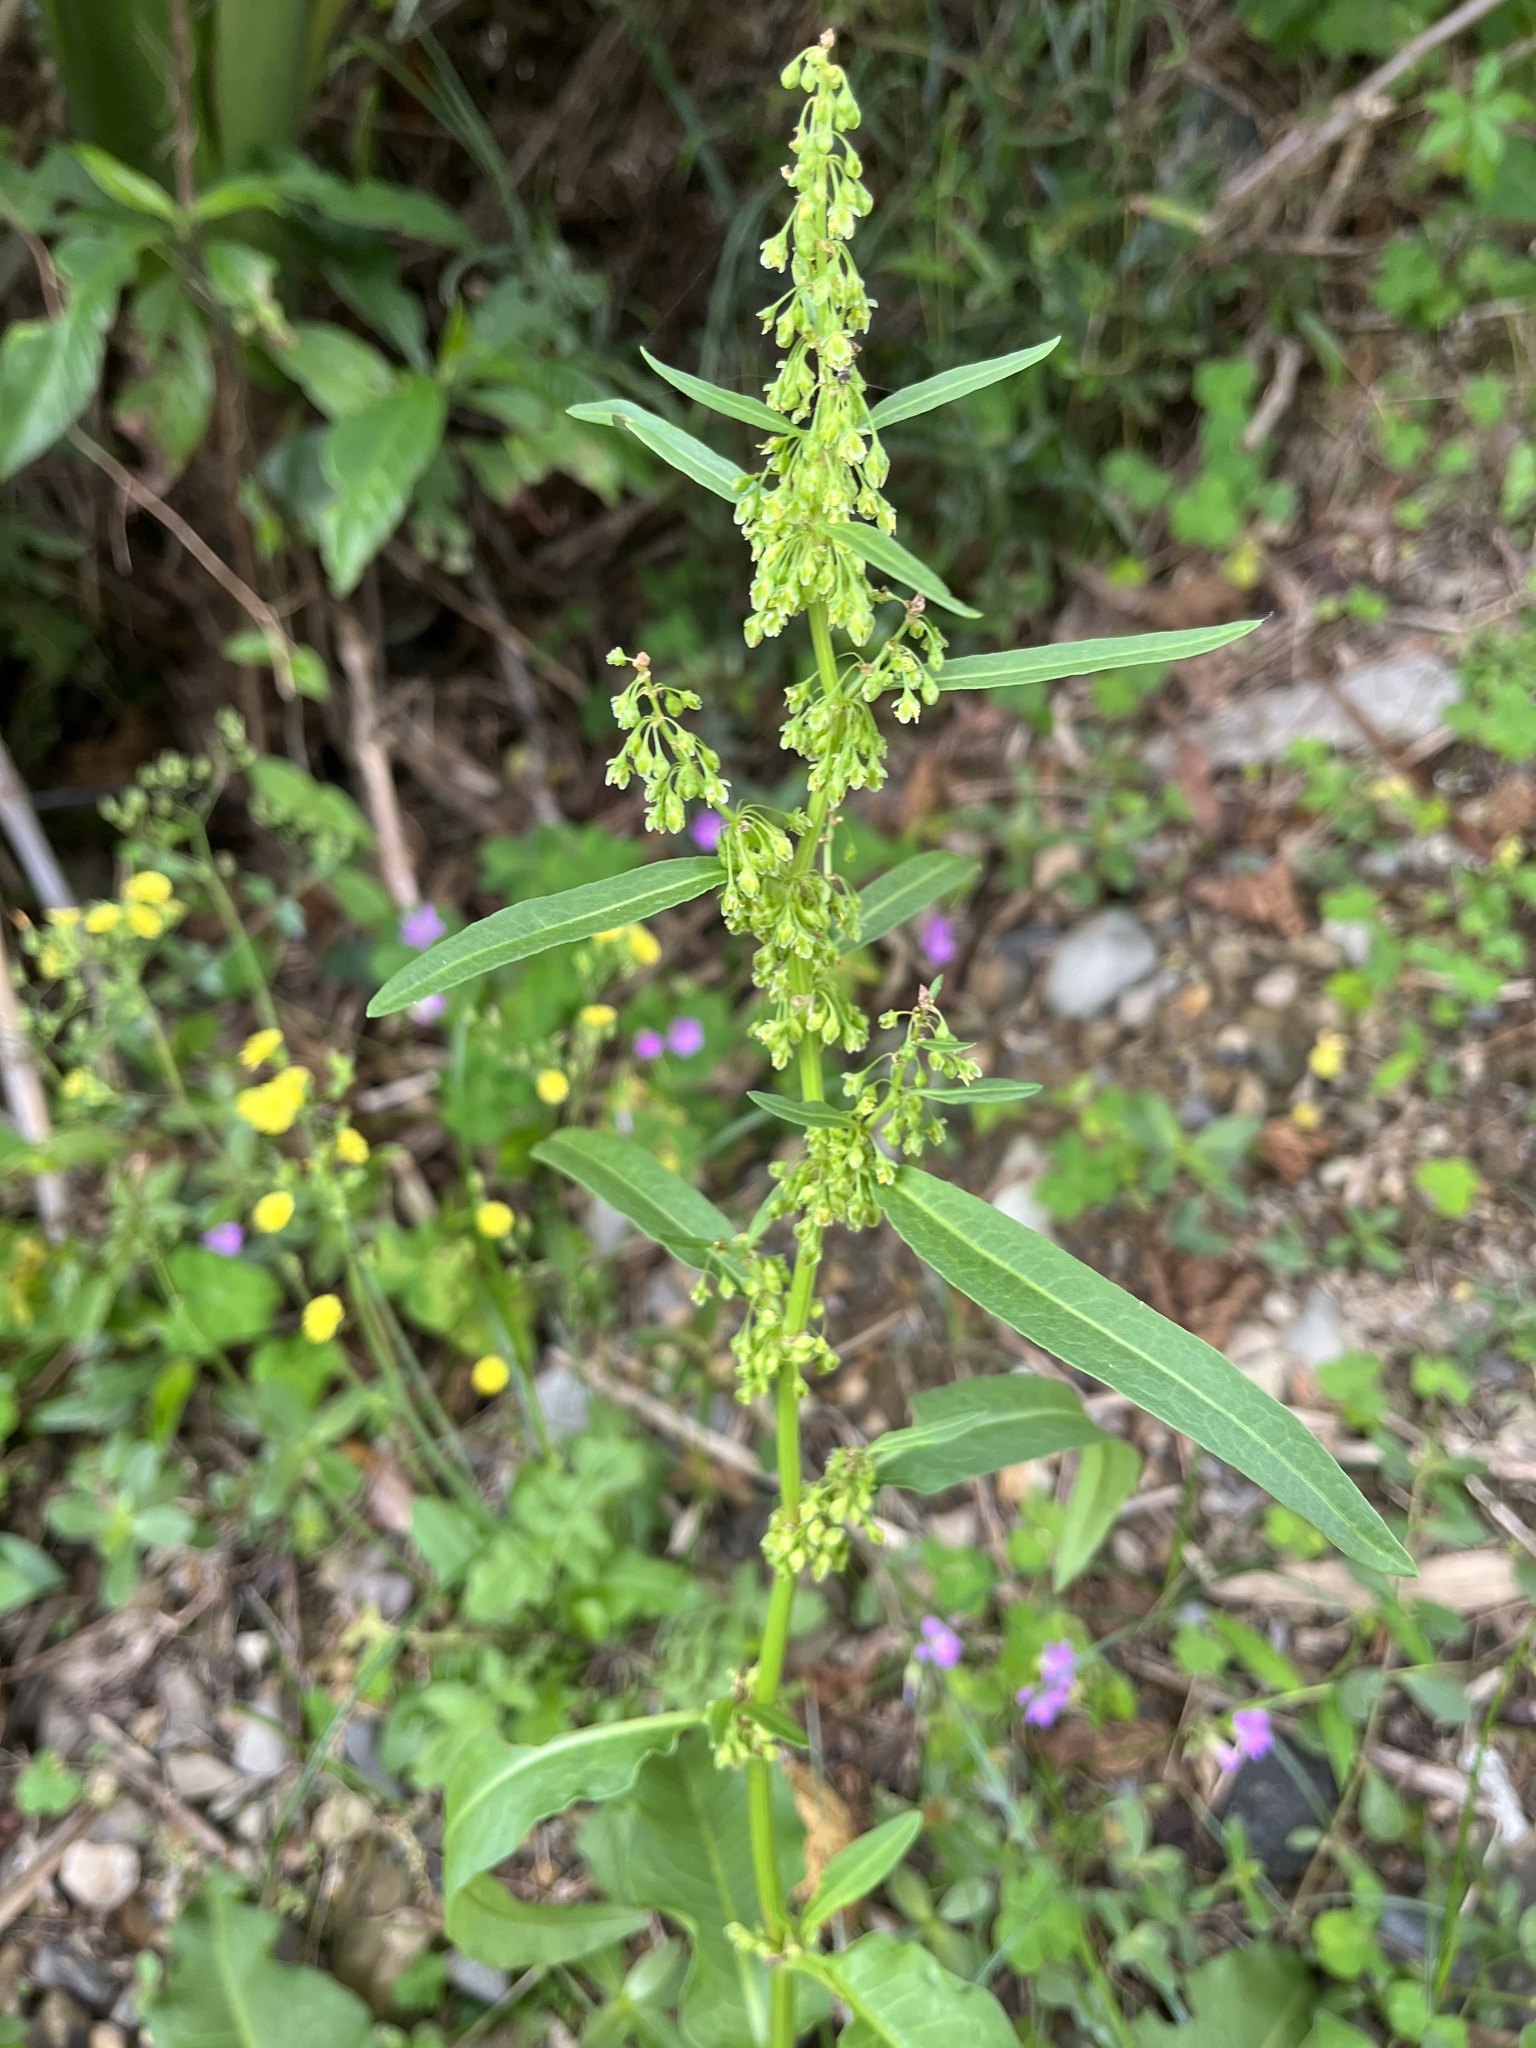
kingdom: Plantae
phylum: Tracheophyta
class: Magnoliopsida
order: Caryophyllales
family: Polygonaceae
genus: Rumex
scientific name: Rumex japonicus
